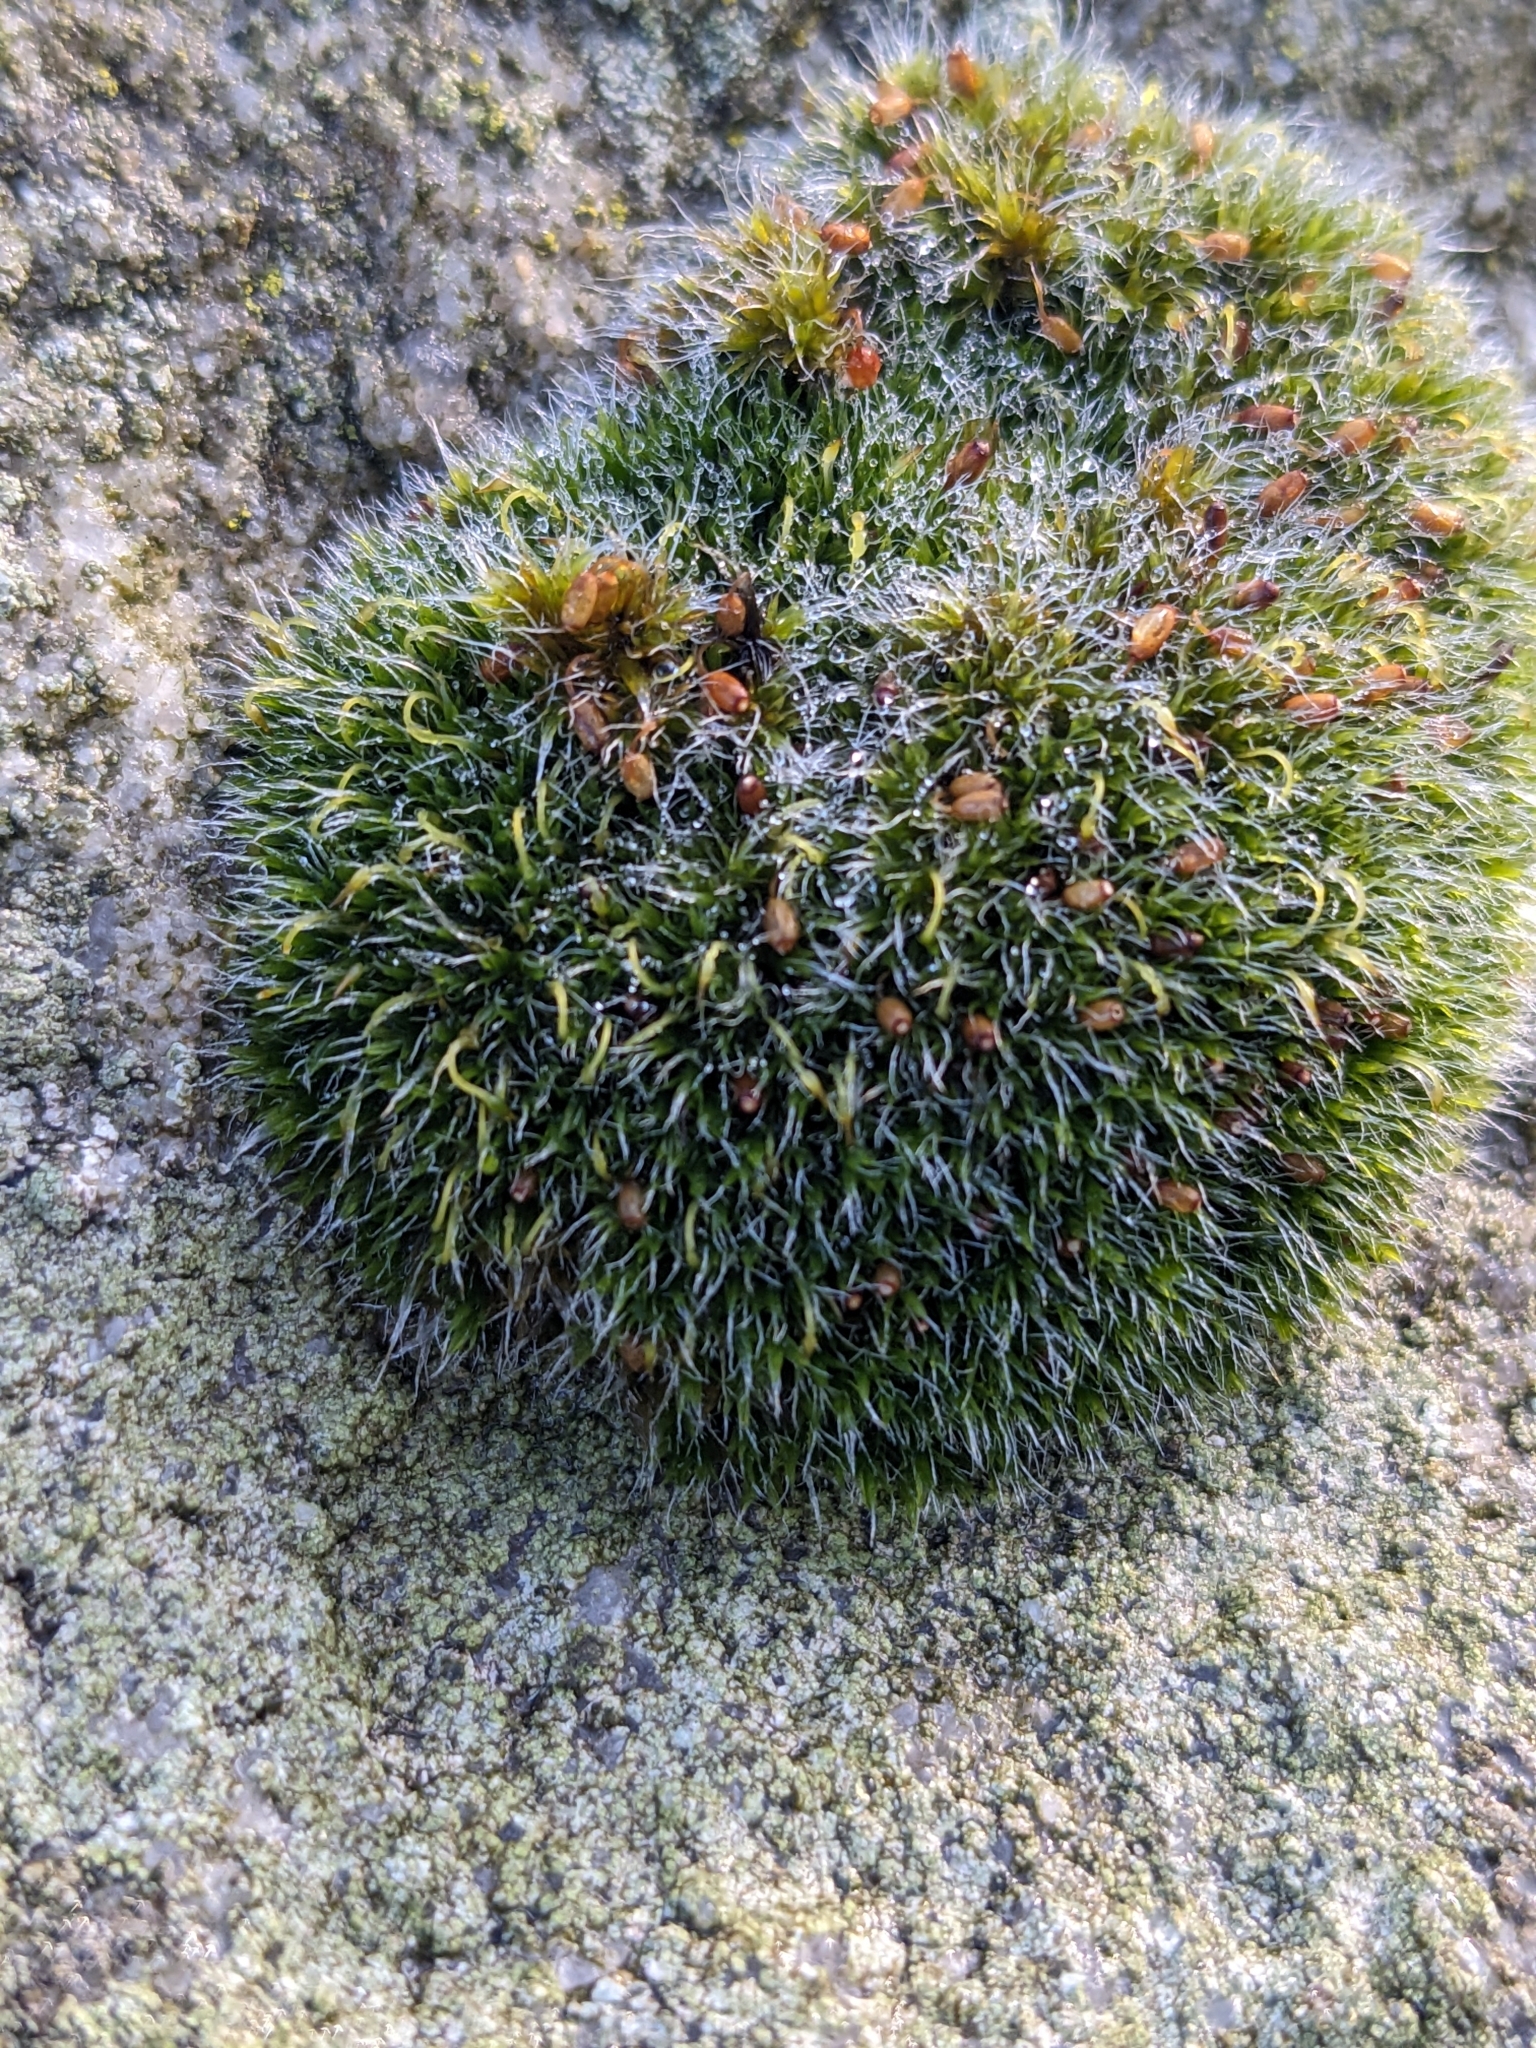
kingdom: Plantae
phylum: Bryophyta
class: Bryopsida
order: Grimmiales
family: Grimmiaceae
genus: Grimmia
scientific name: Grimmia pulvinata
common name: Grey-cushioned grimmia
